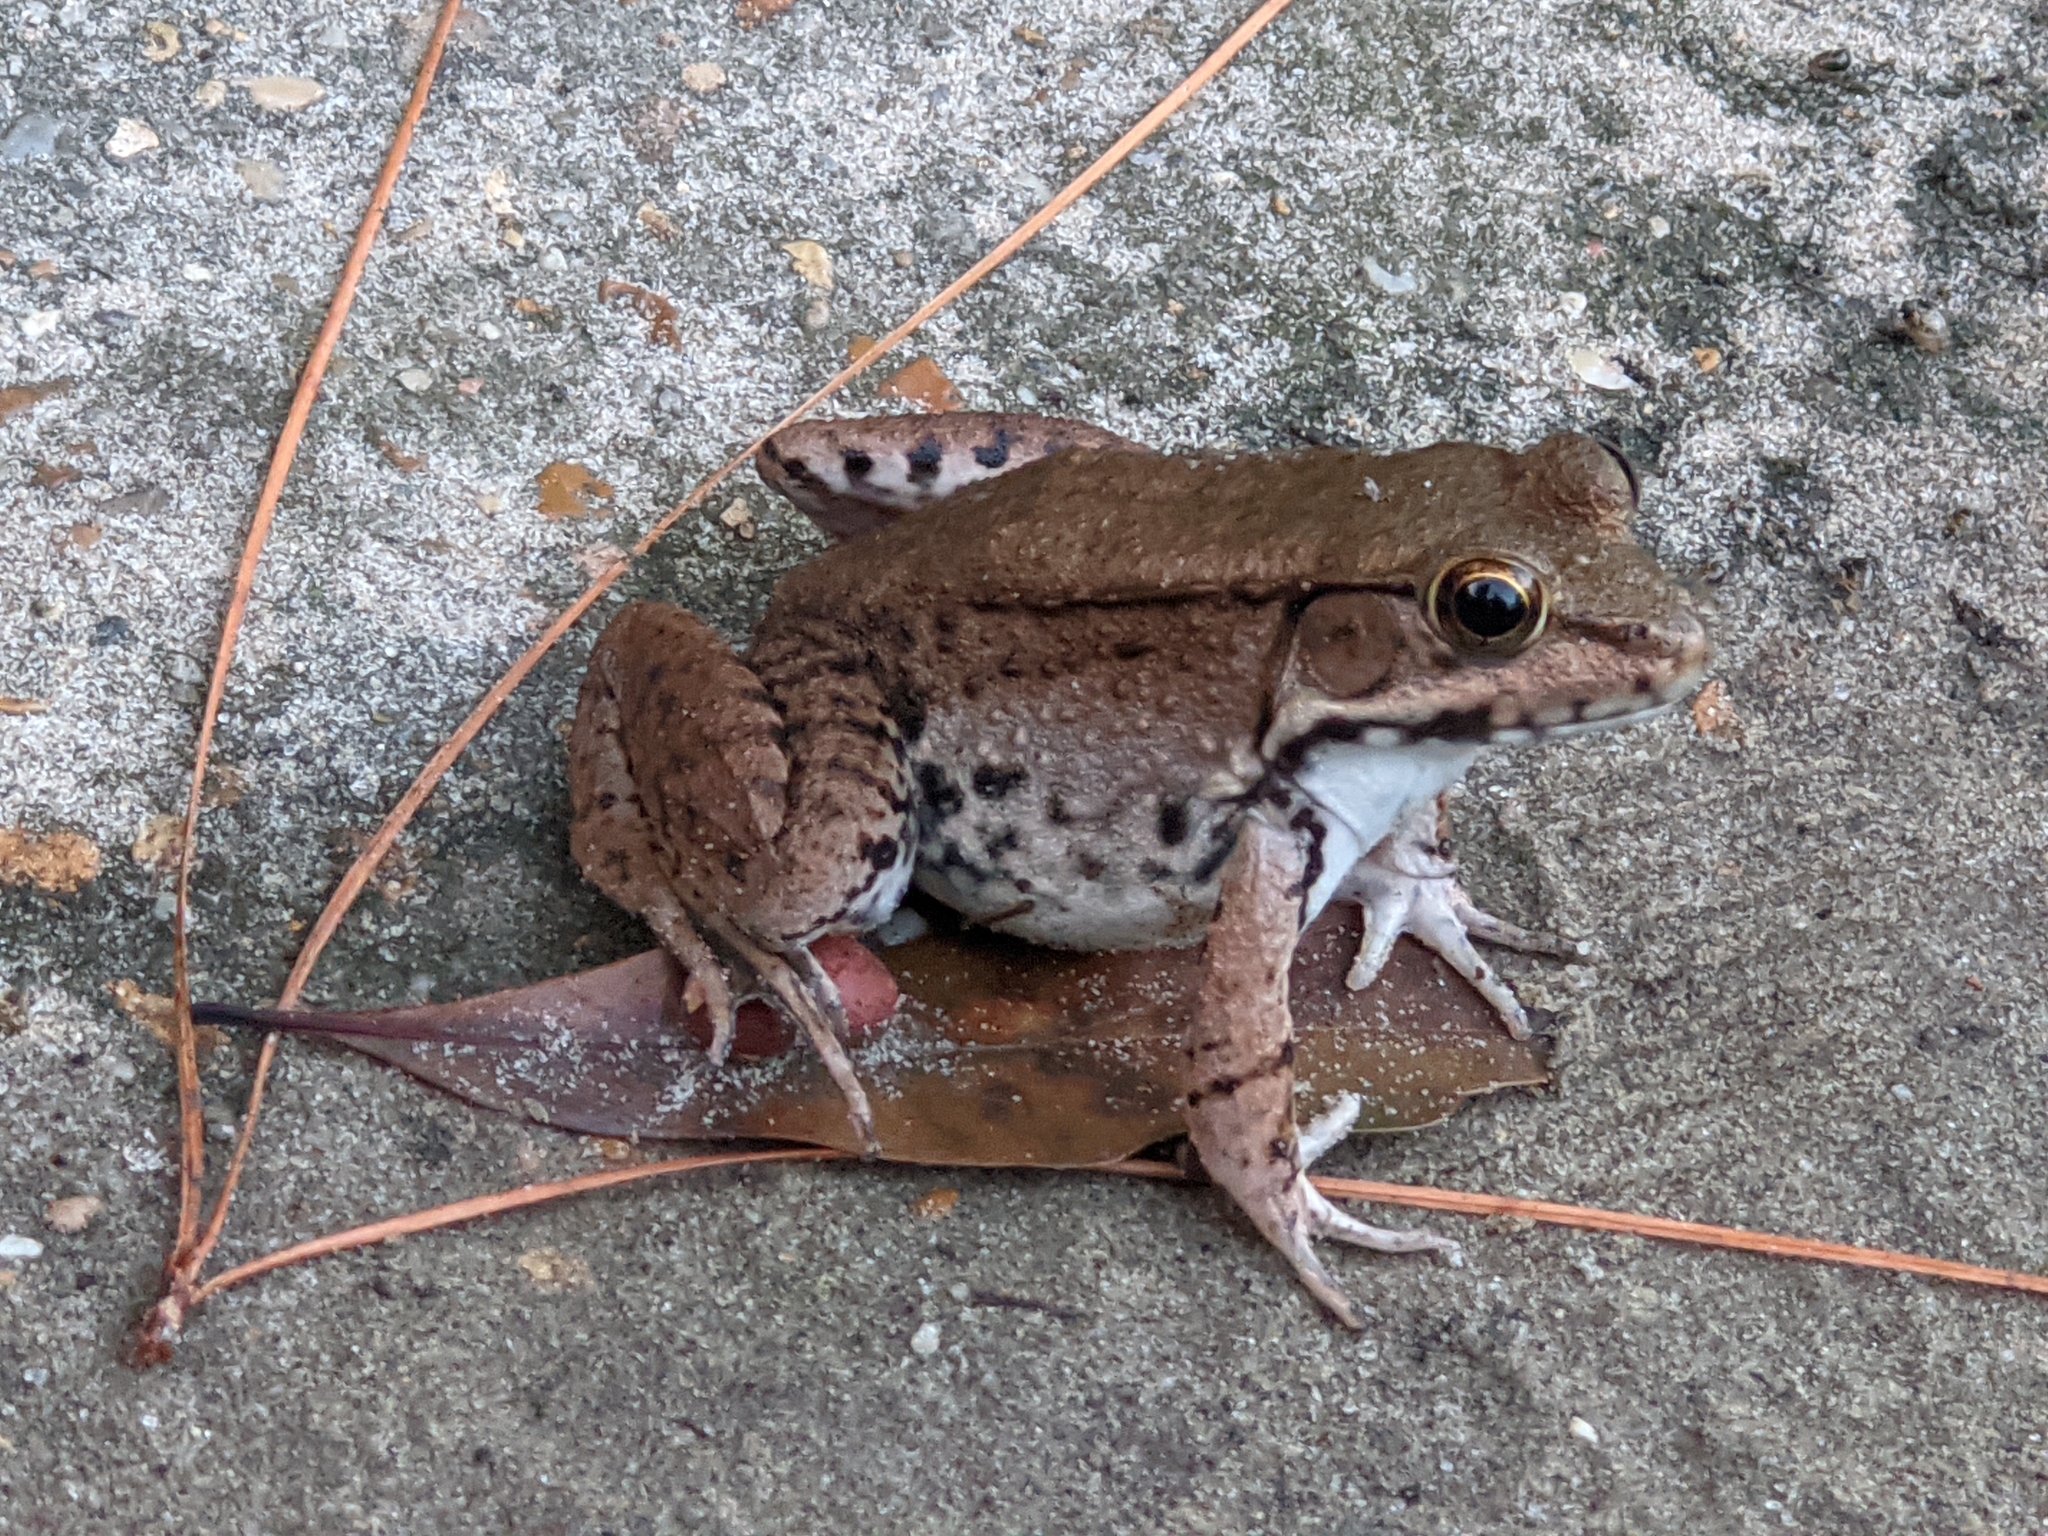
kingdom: Animalia
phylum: Chordata
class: Amphibia
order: Anura
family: Ranidae
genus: Lithobates
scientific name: Lithobates clamitans
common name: Green frog
